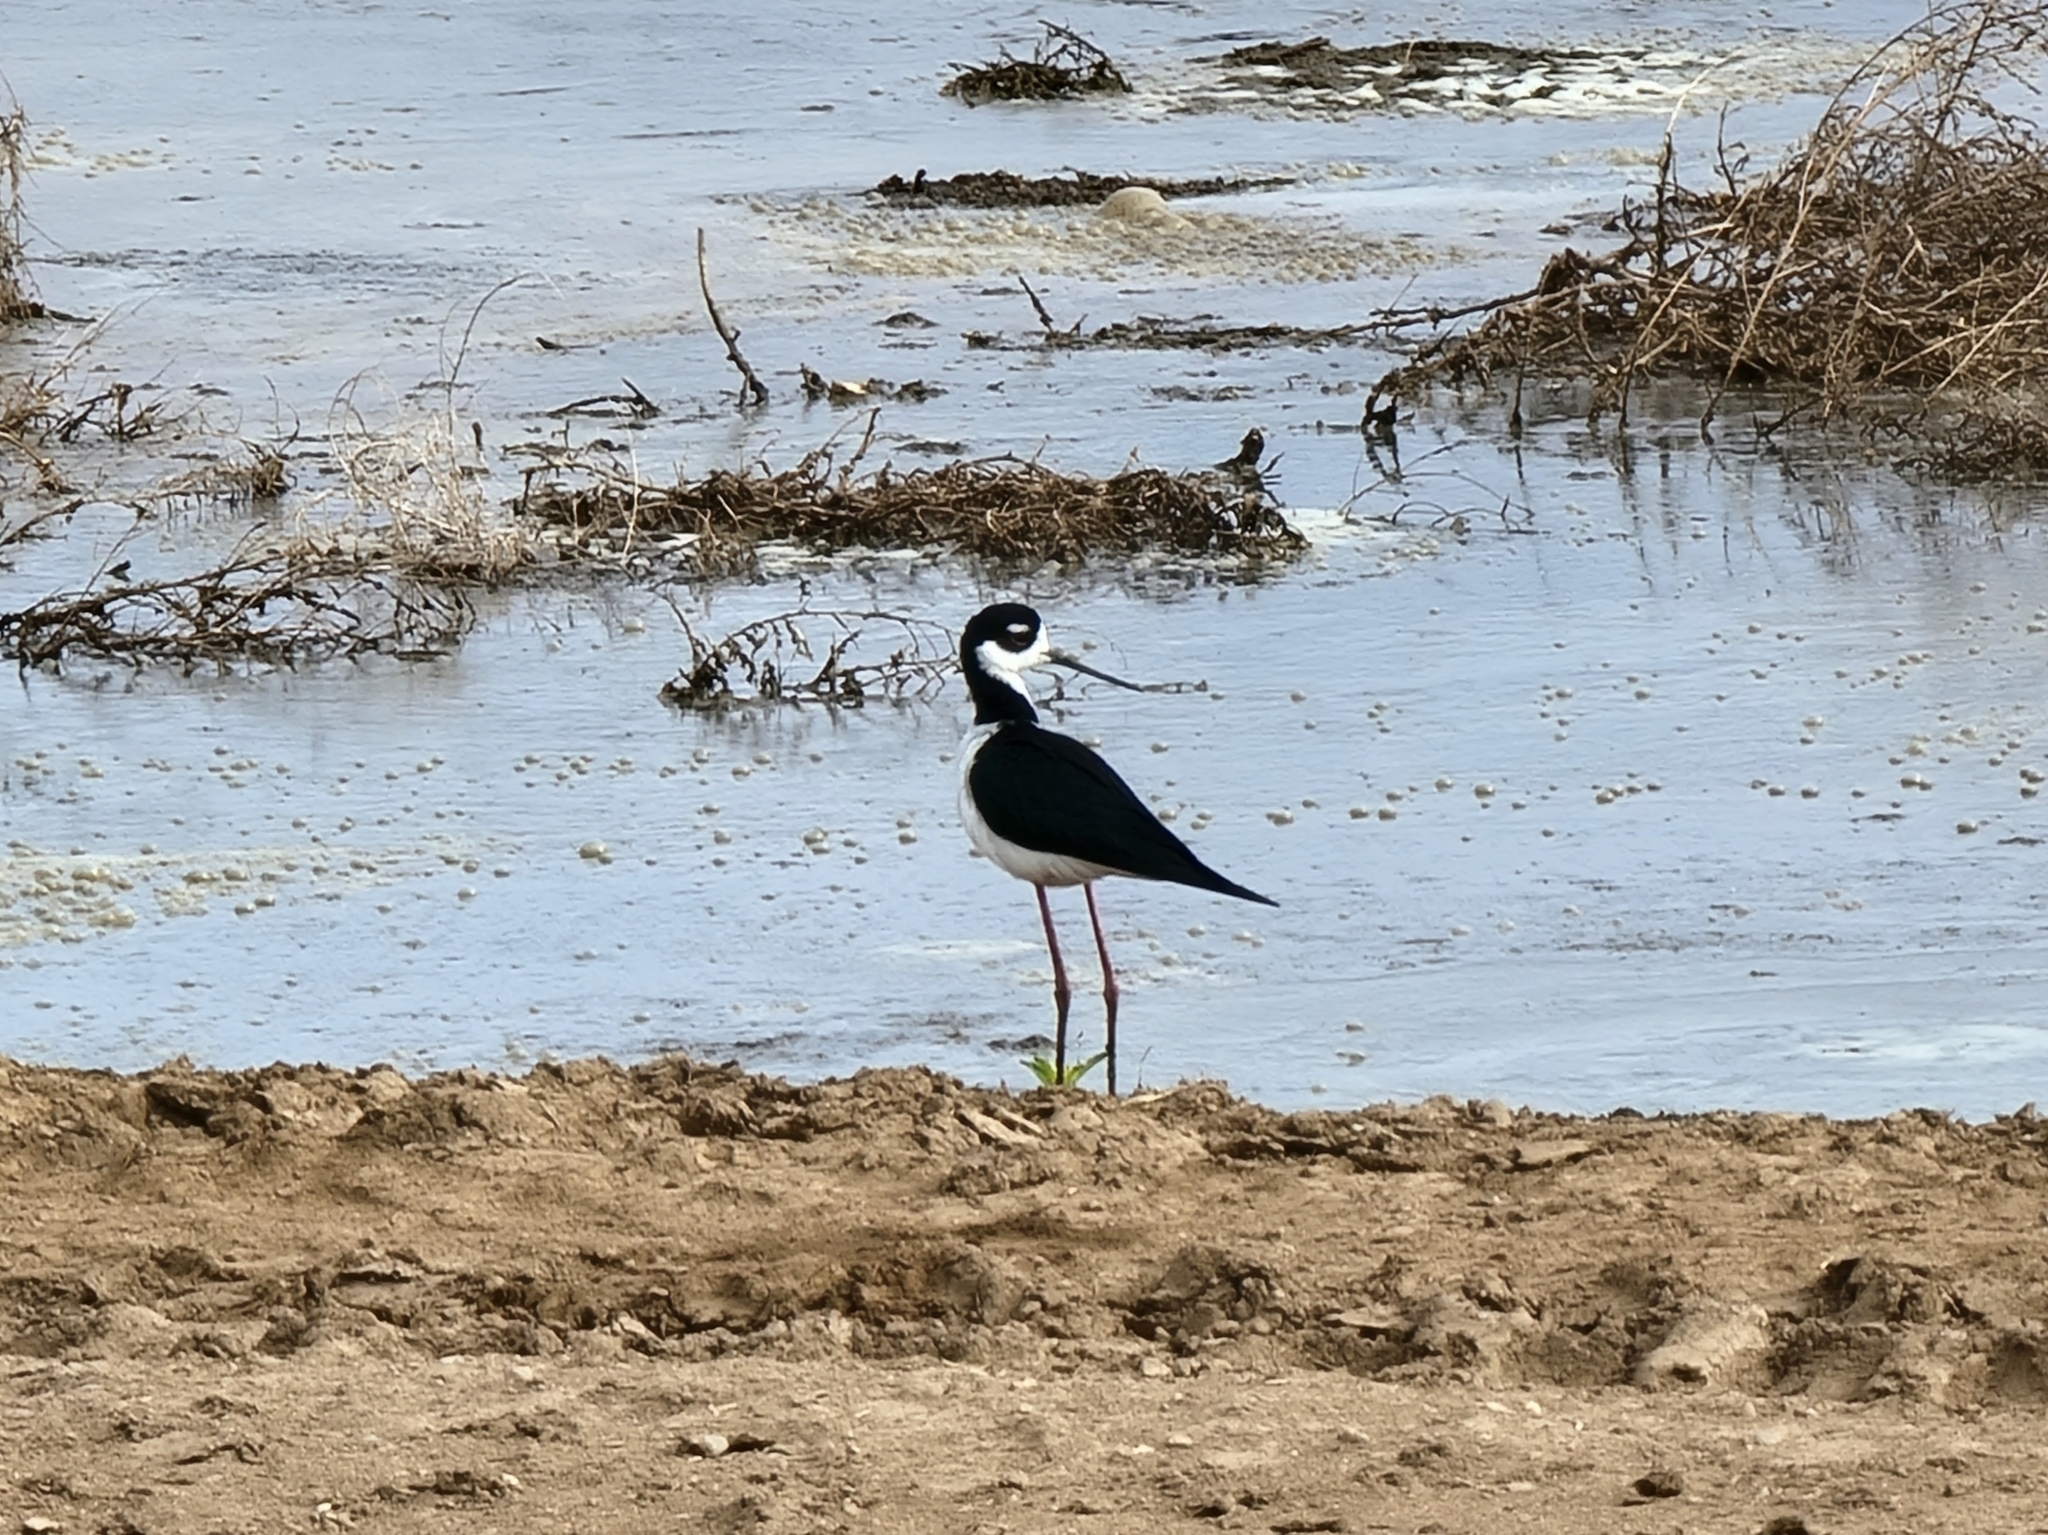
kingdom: Animalia
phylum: Chordata
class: Aves
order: Charadriiformes
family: Recurvirostridae
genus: Himantopus
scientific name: Himantopus mexicanus
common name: Black-necked stilt
